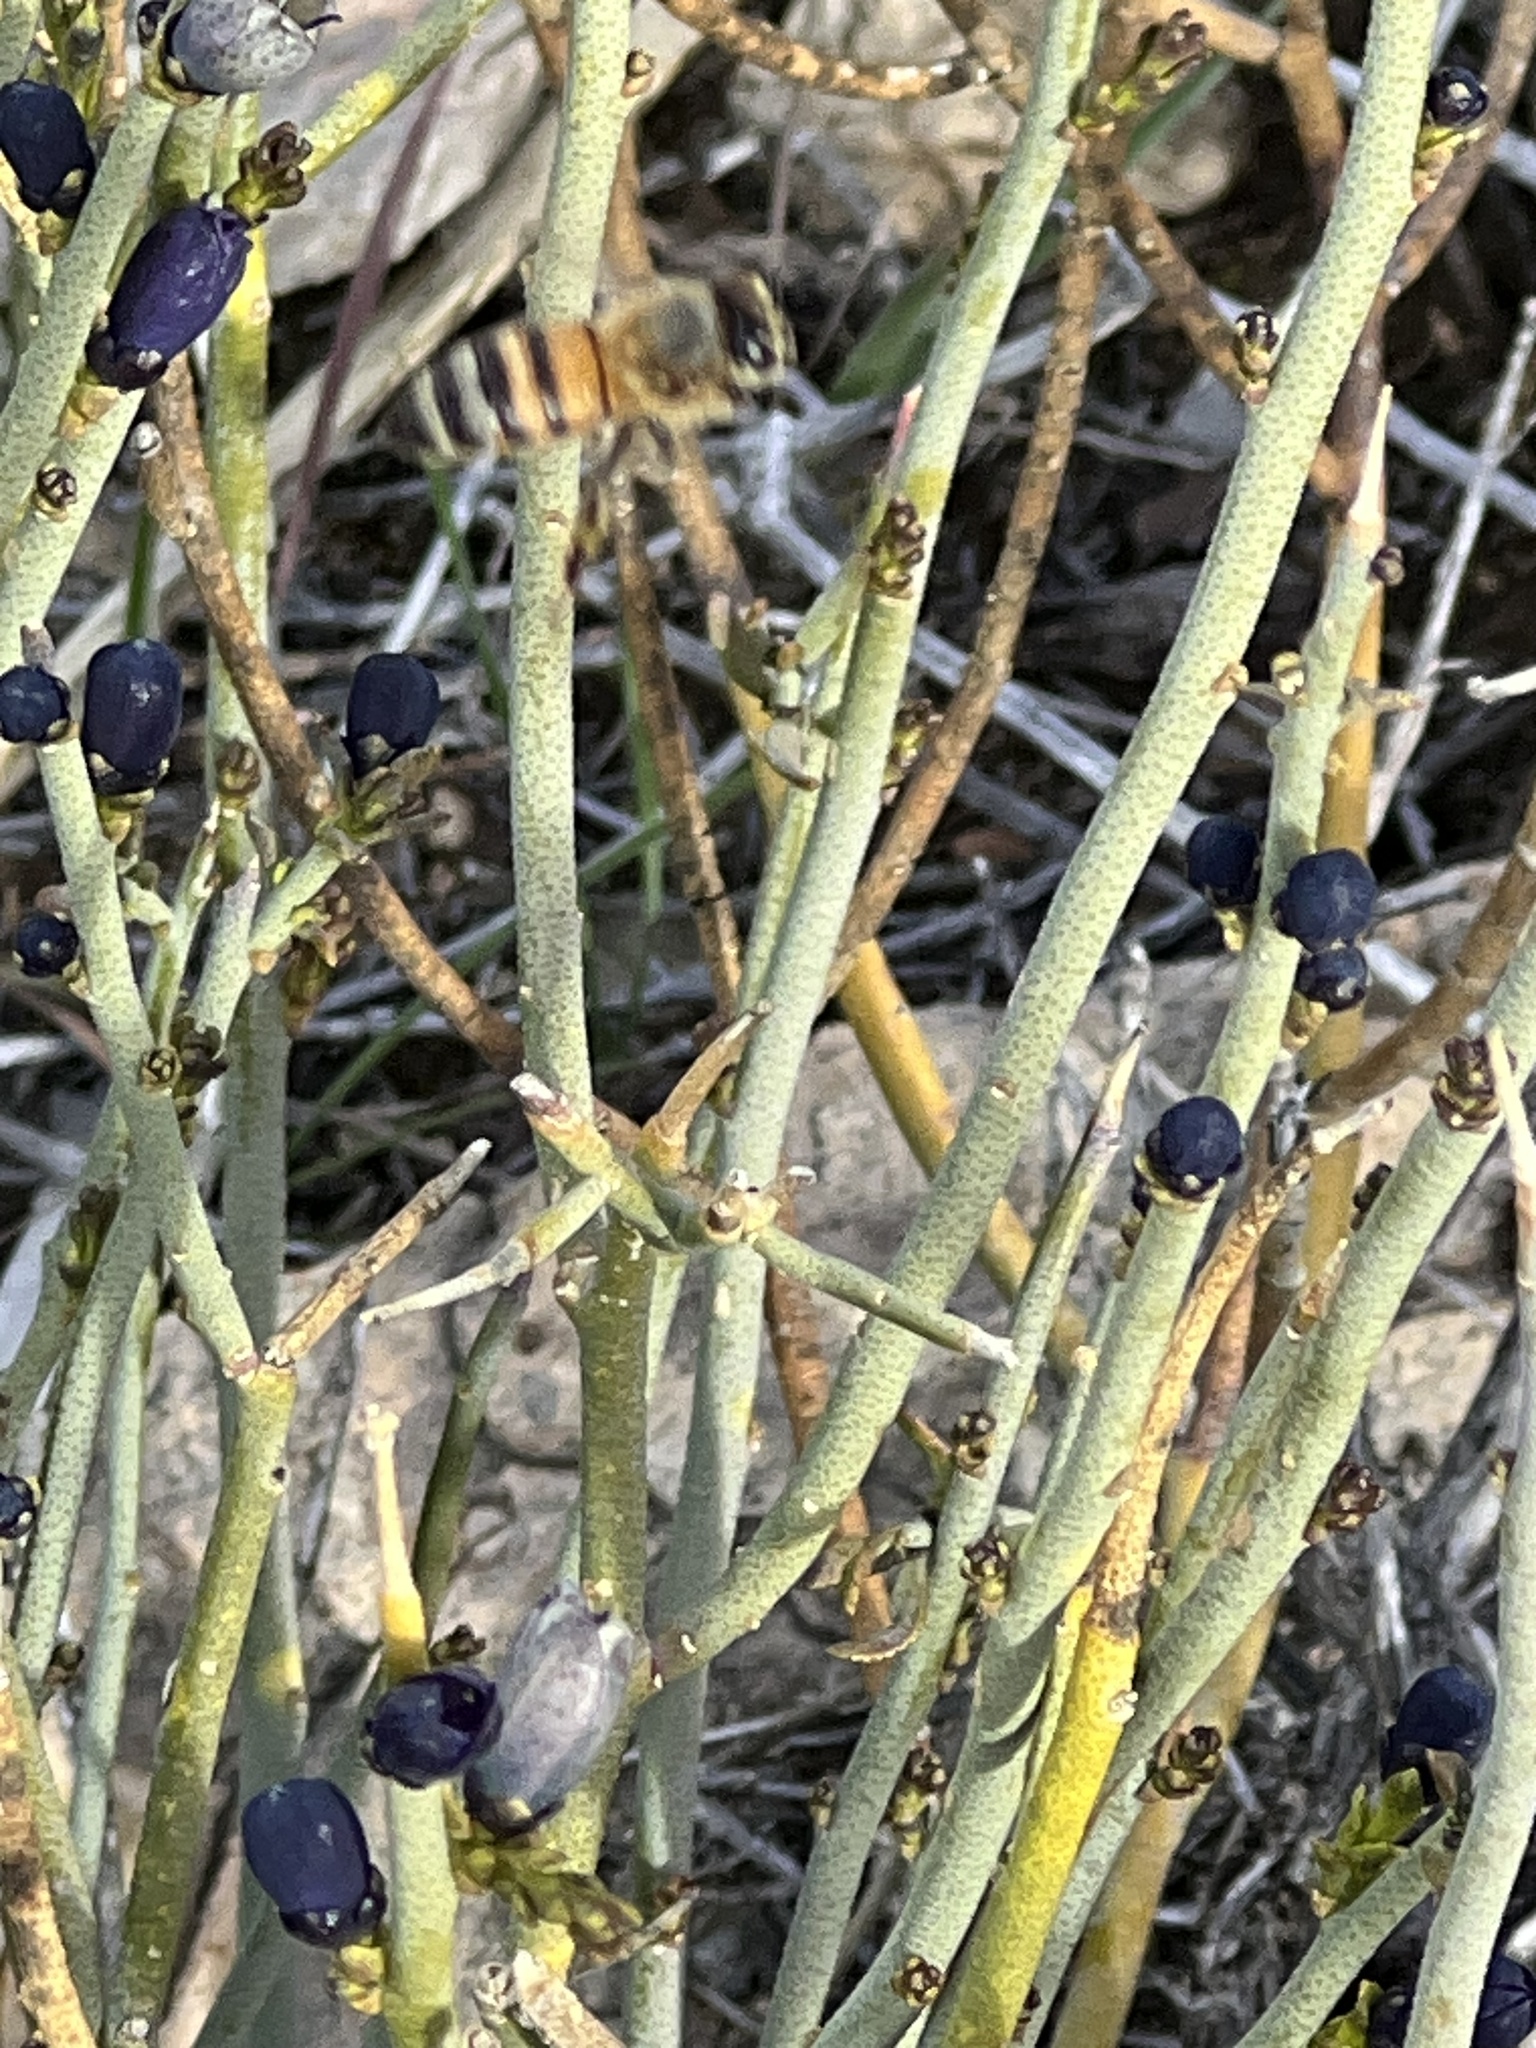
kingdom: Animalia
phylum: Arthropoda
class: Insecta
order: Hymenoptera
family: Apidae
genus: Apis
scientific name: Apis mellifera
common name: Honey bee
